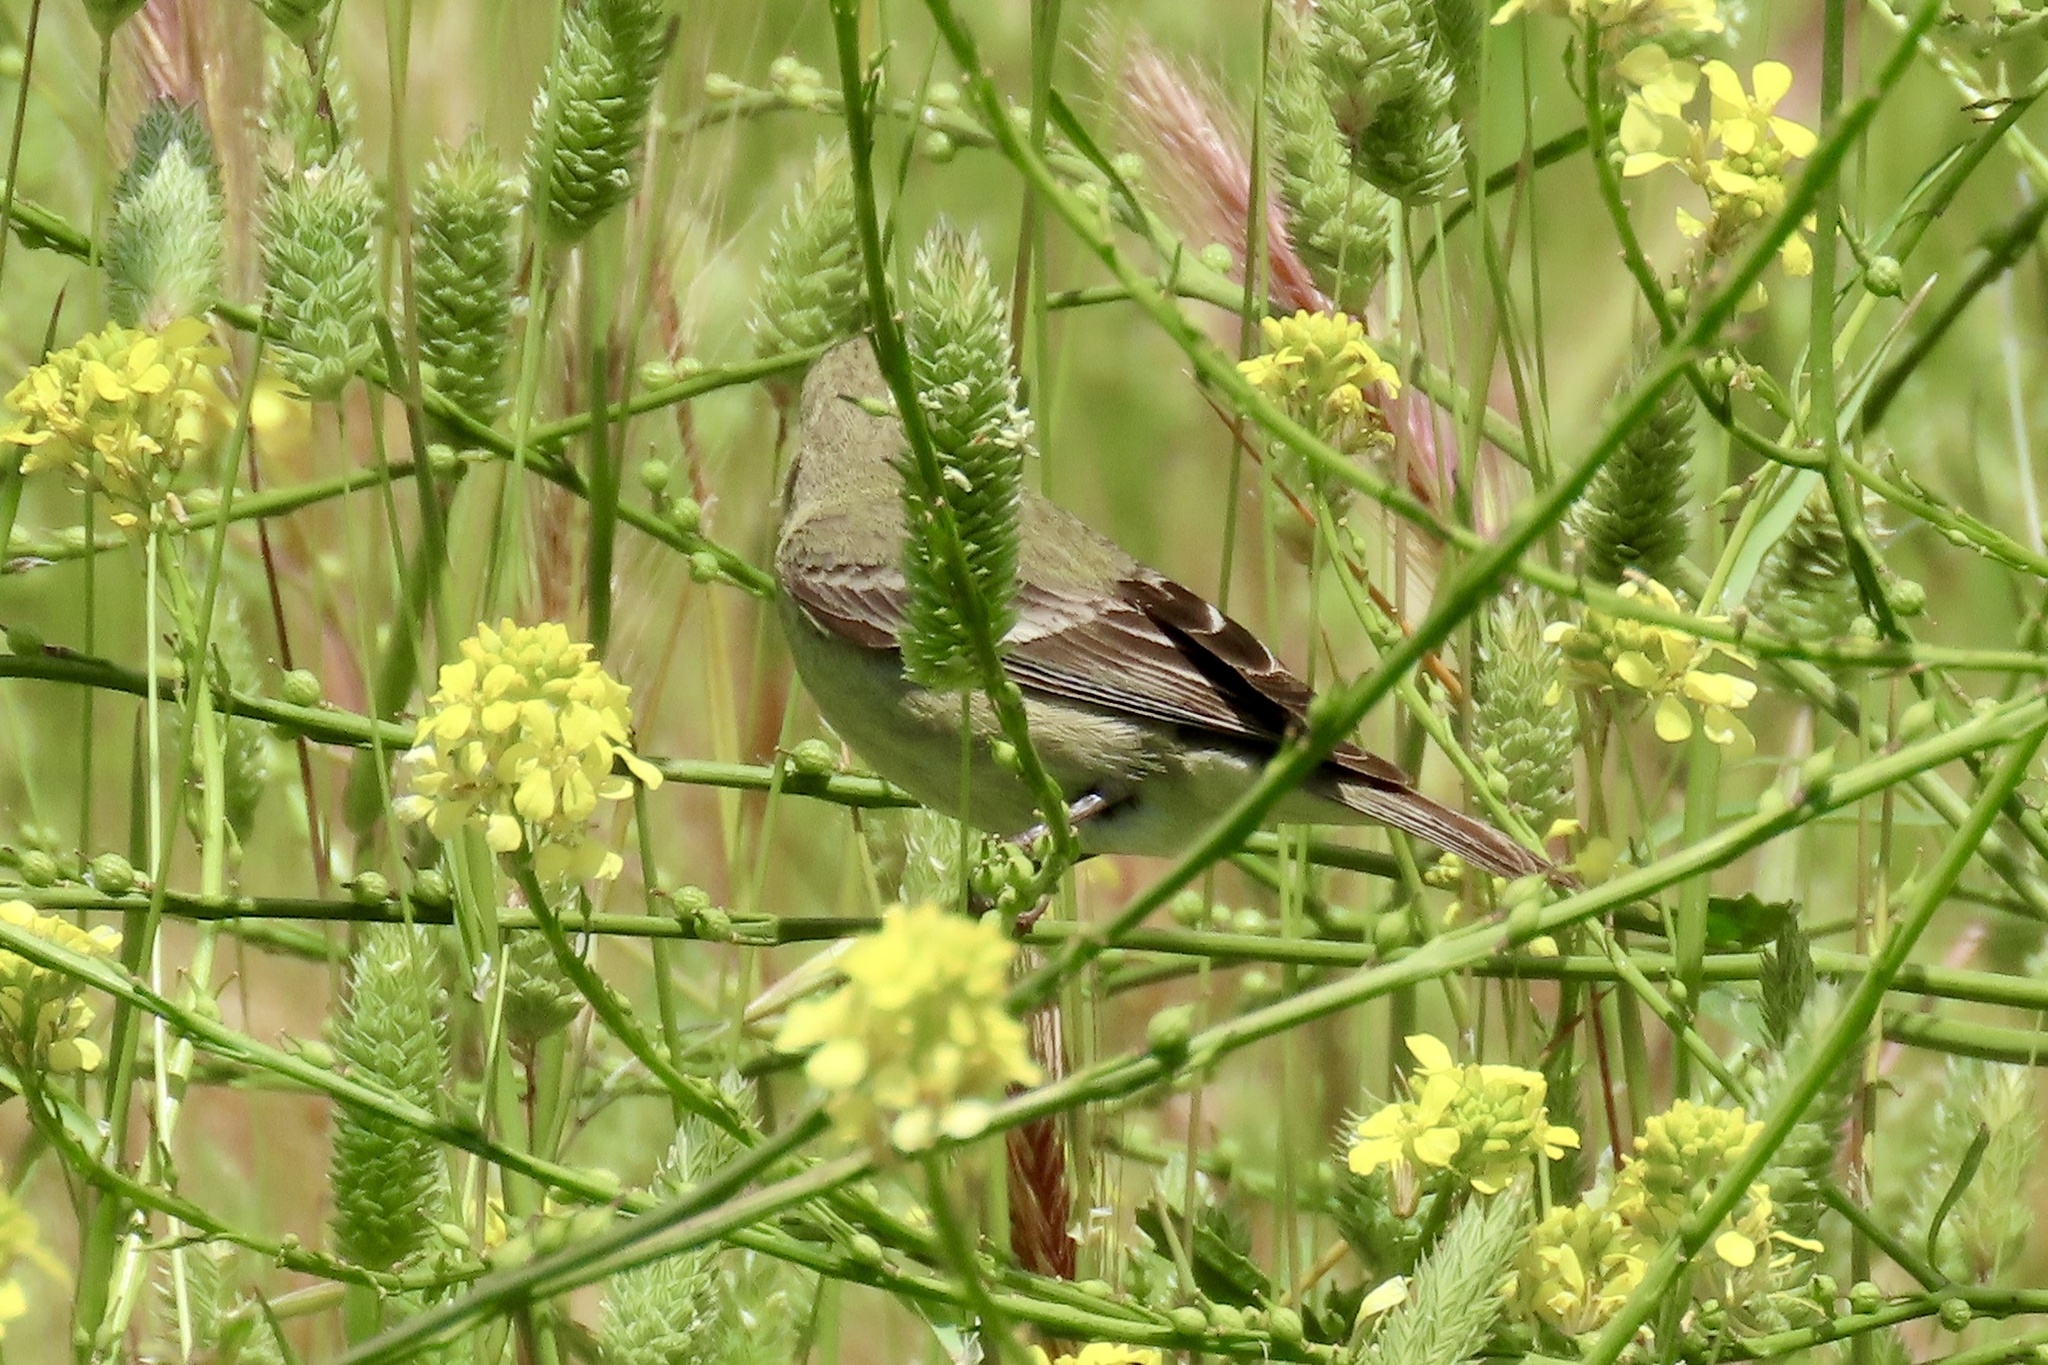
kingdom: Animalia
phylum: Chordata
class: Aves
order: Passeriformes
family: Fringillidae
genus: Spinus
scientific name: Spinus psaltria
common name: Lesser goldfinch
